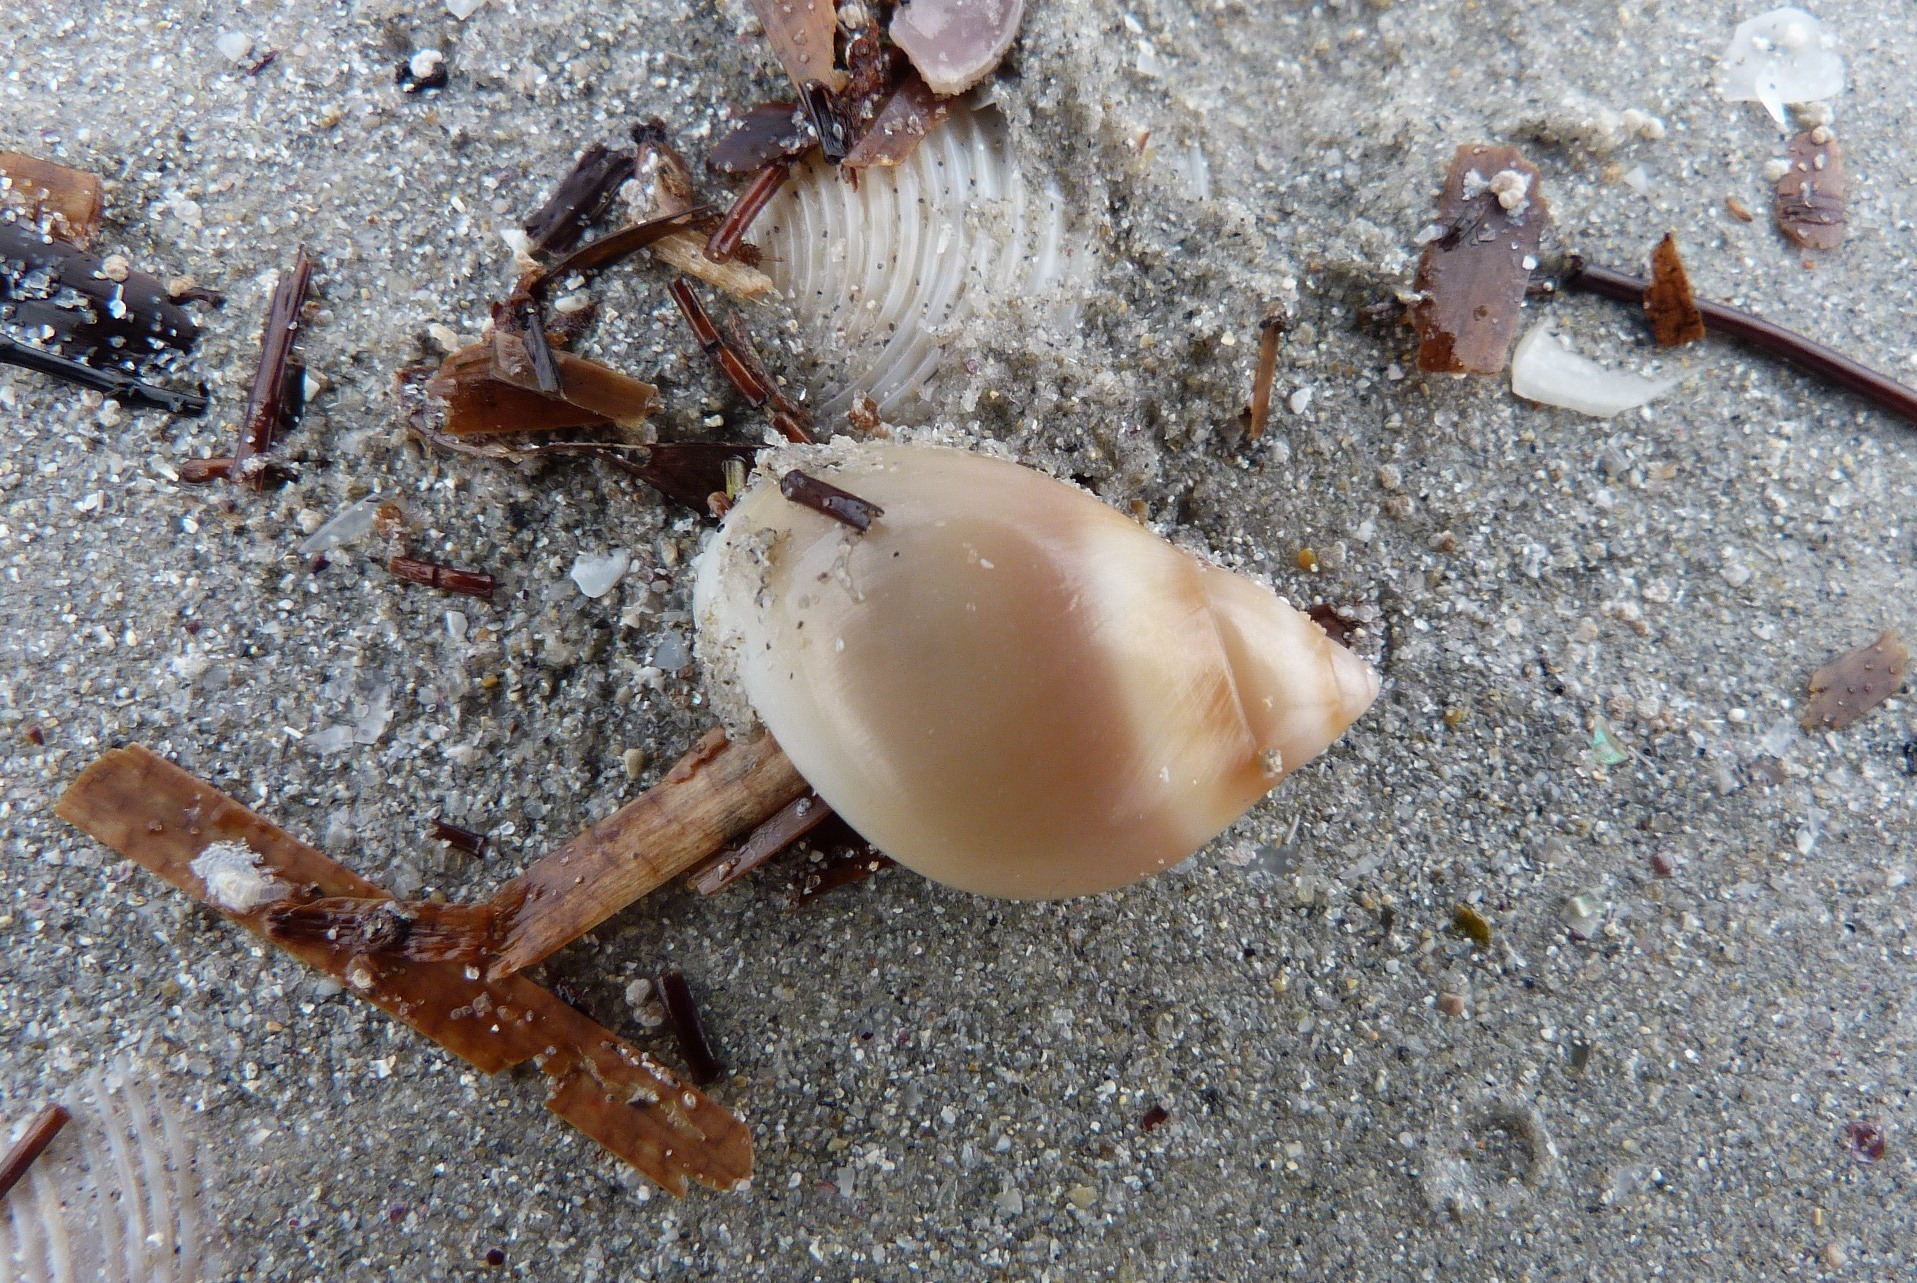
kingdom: Animalia
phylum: Mollusca
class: Gastropoda
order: Littorinimorpha
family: Naticidae
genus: Conuber
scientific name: Conuber conicum
